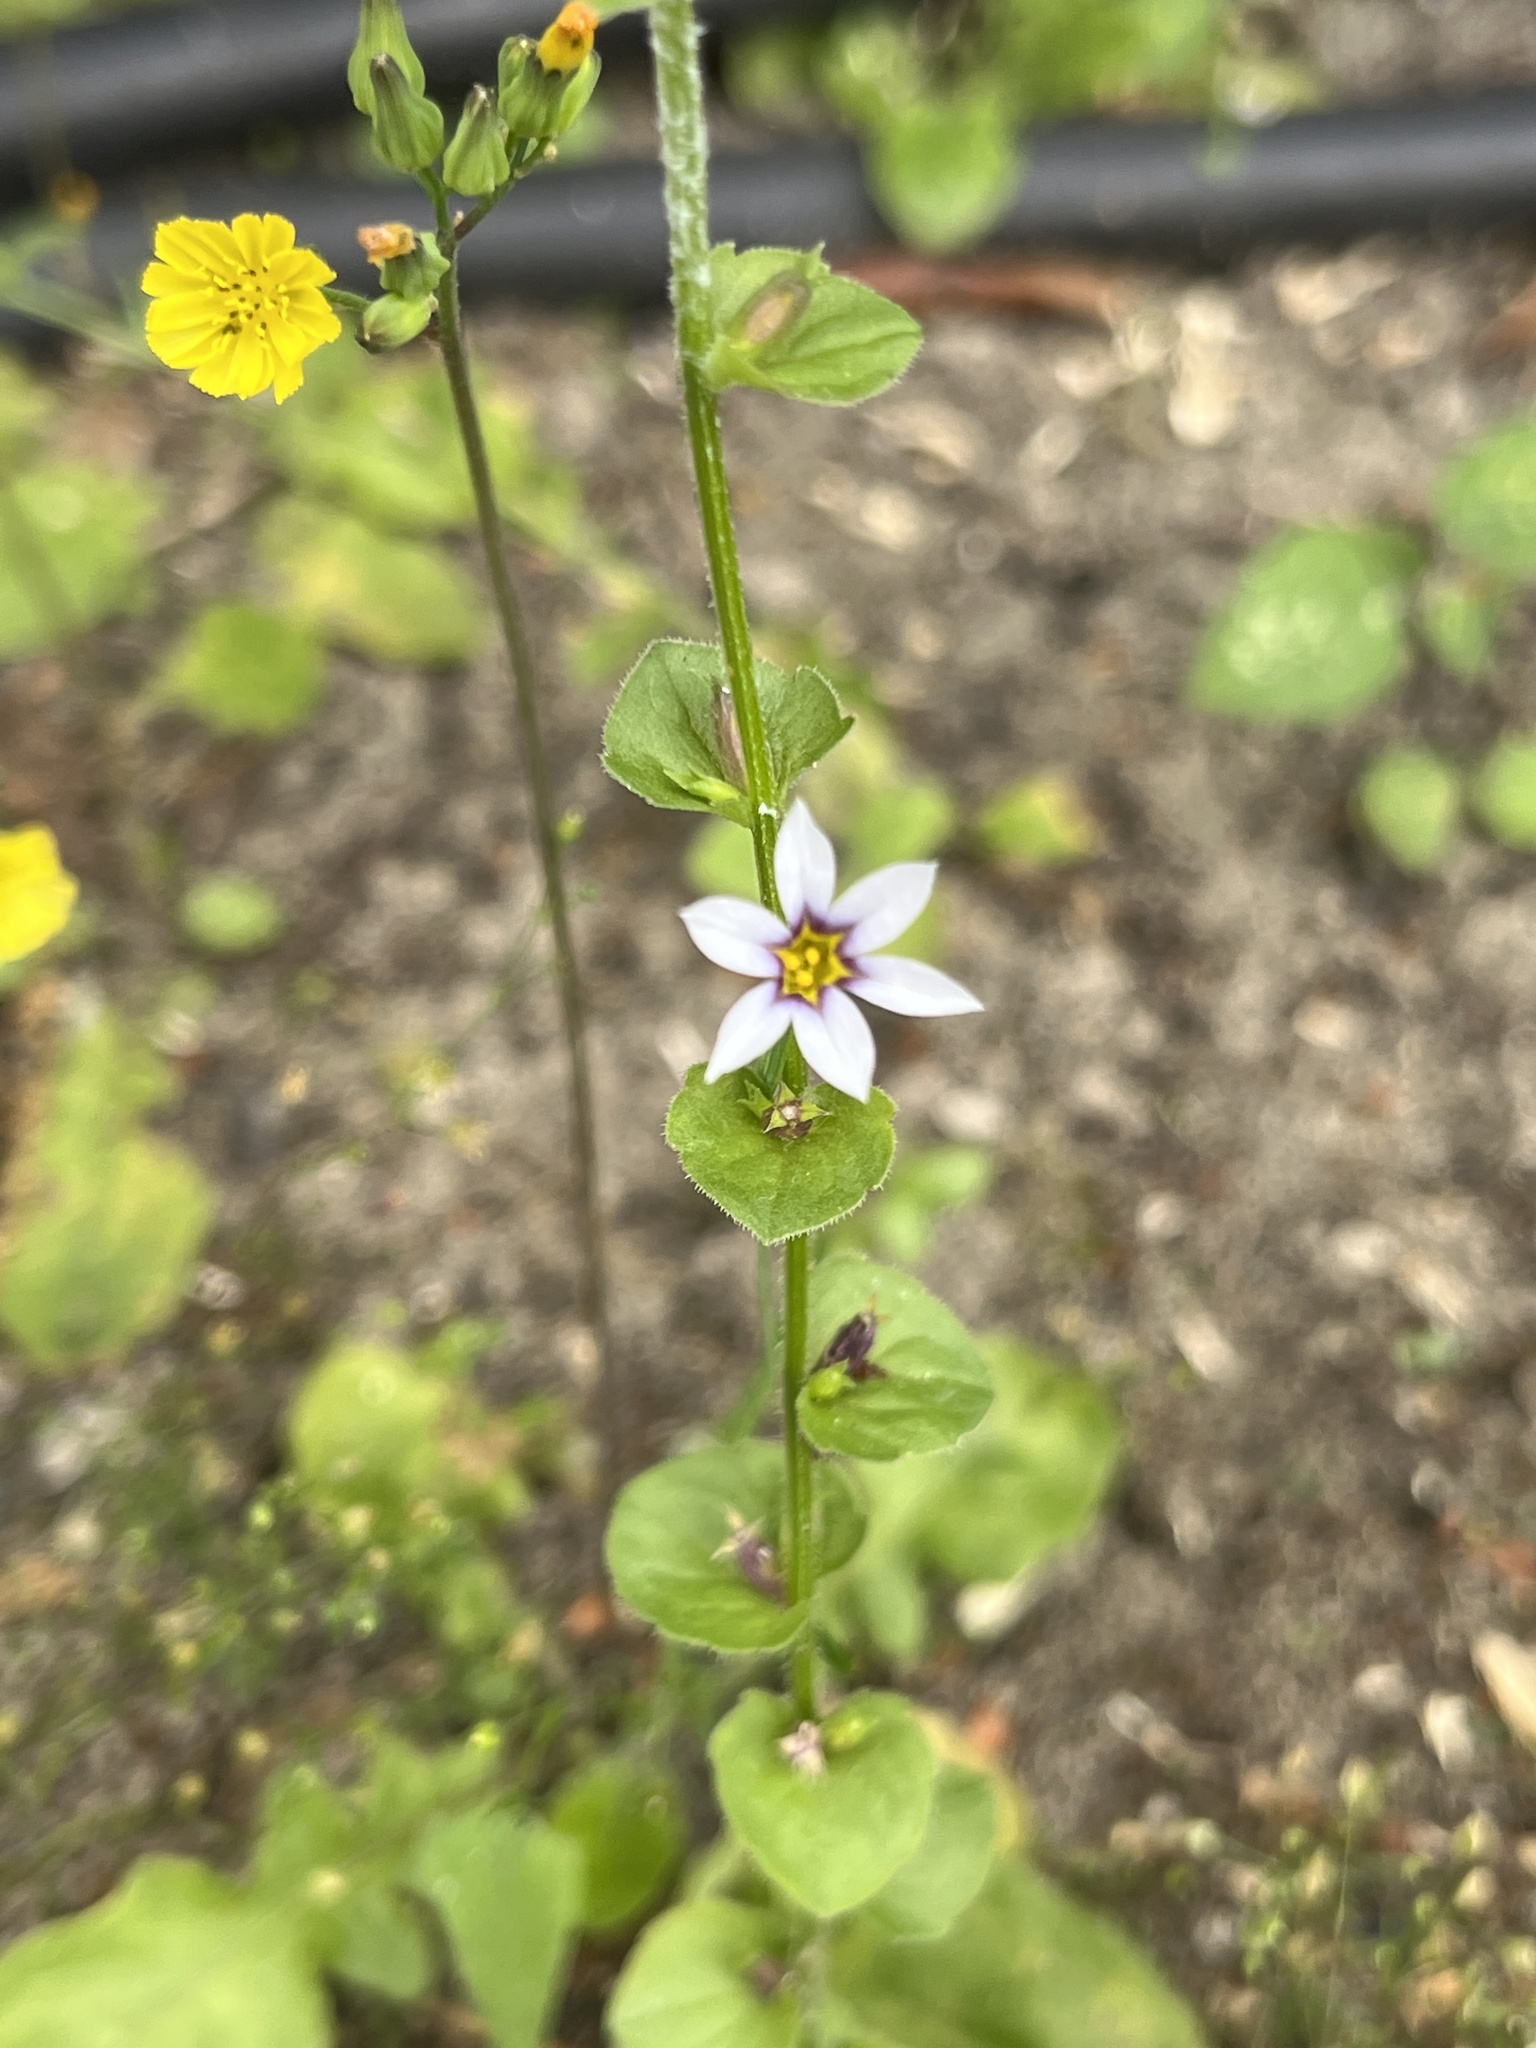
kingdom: Plantae
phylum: Tracheophyta
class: Liliopsida
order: Asparagales
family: Iridaceae
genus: Sisyrinchium
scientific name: Sisyrinchium micranthum
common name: Bermuda pigroot
